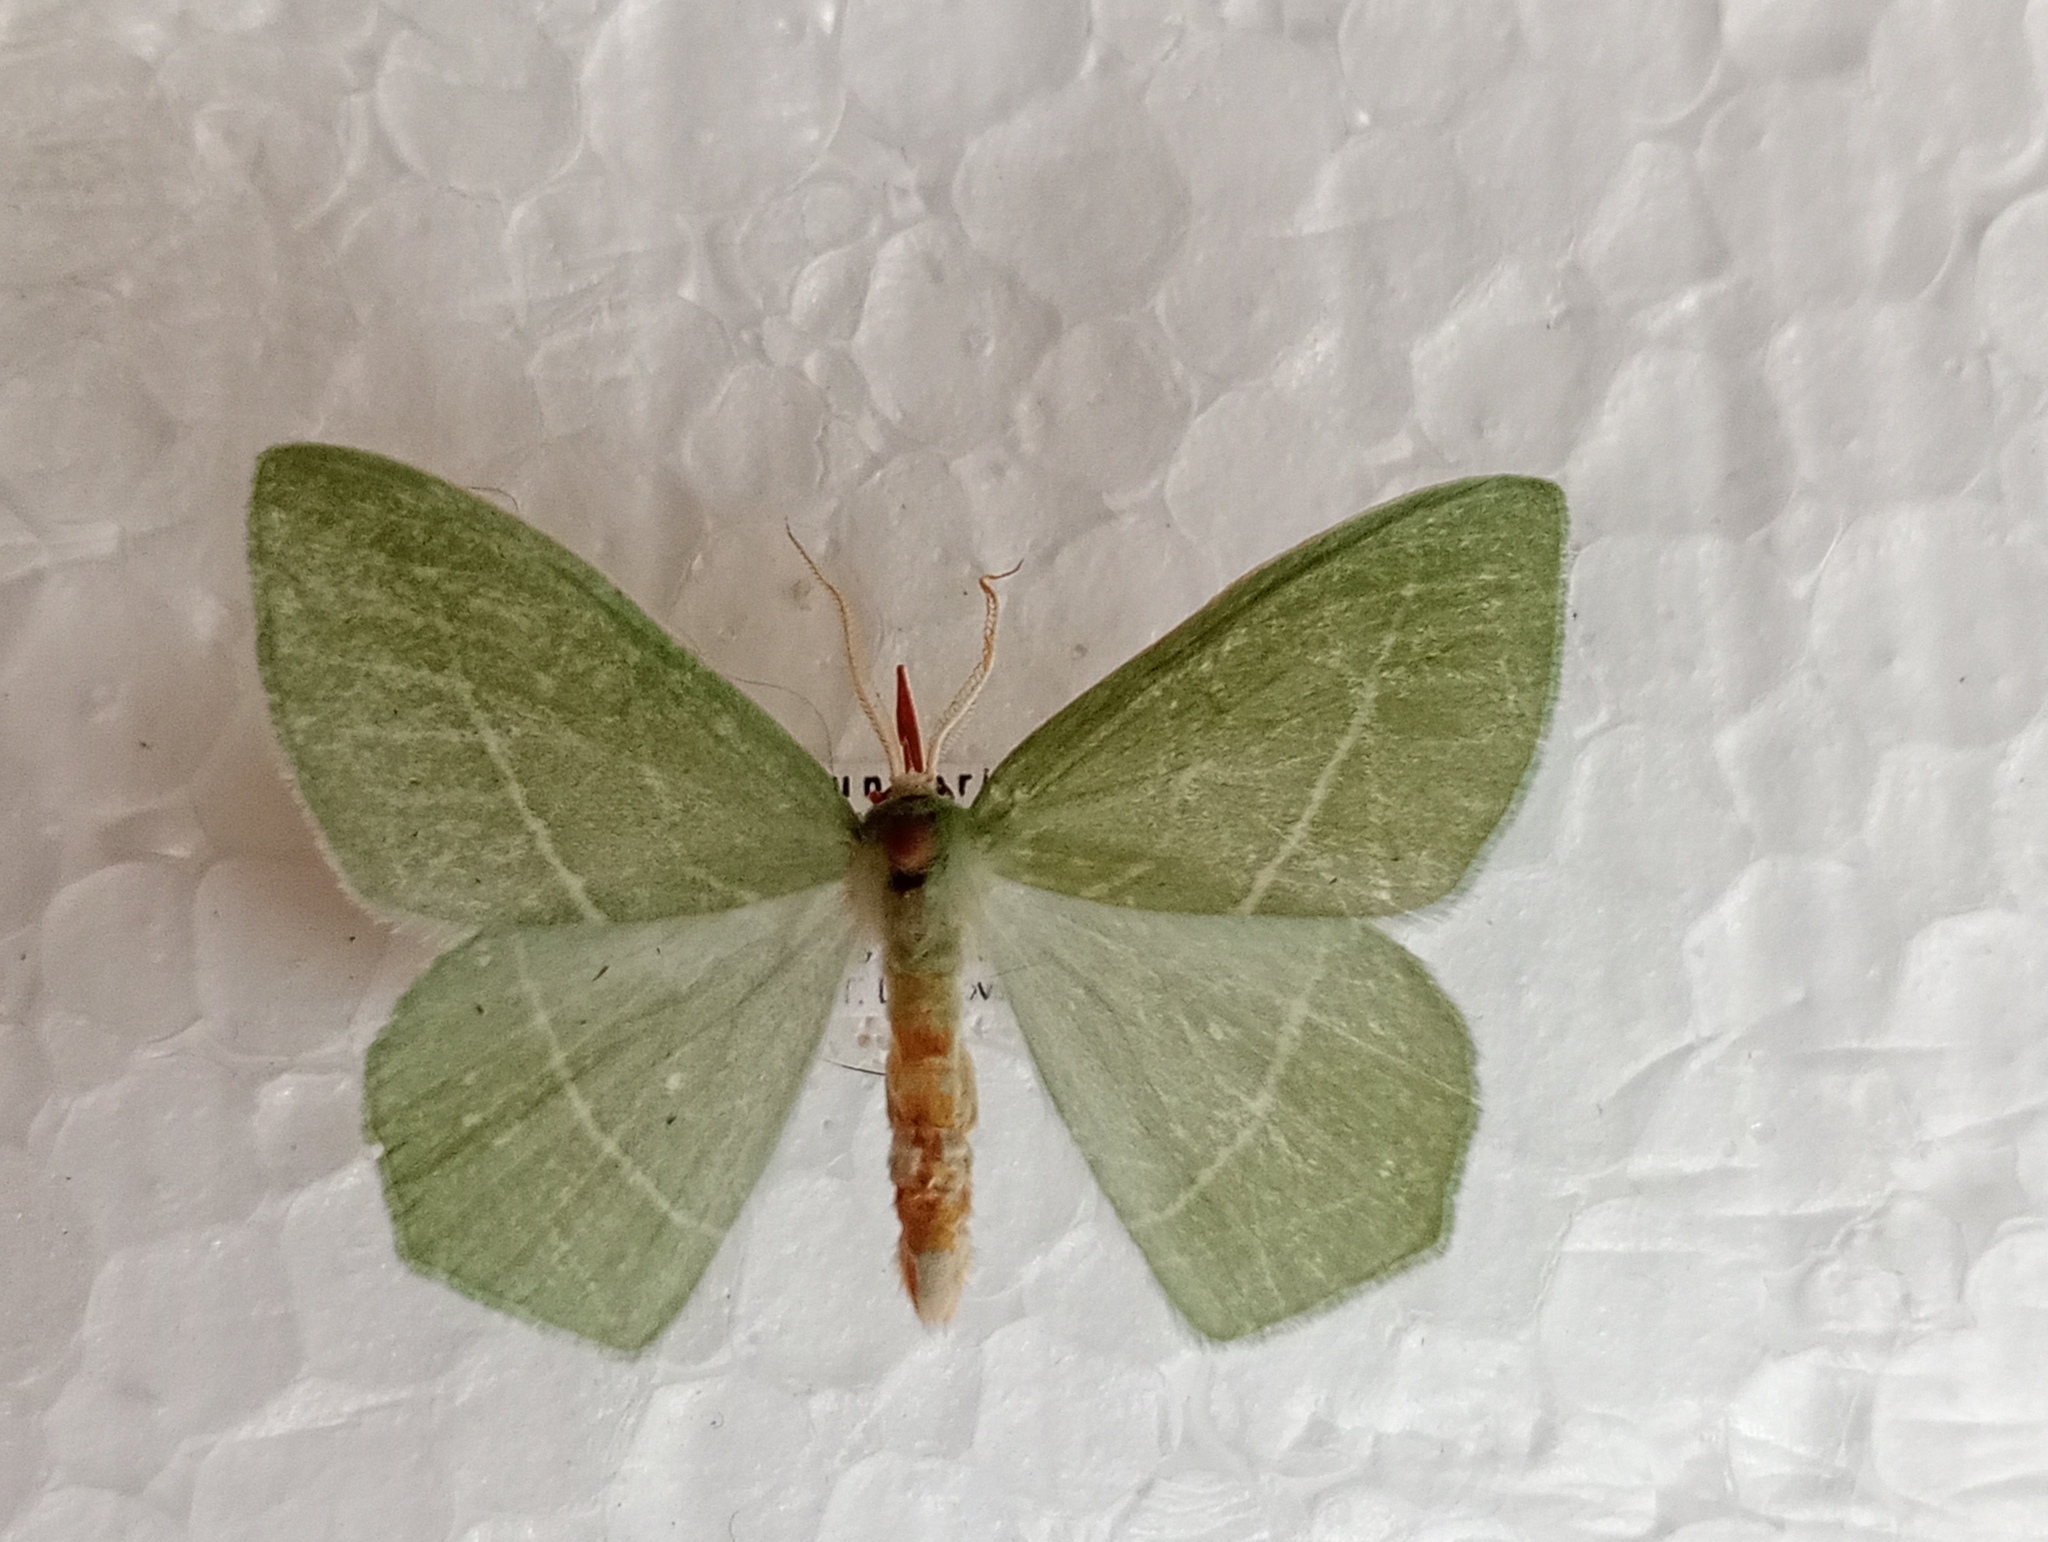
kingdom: Animalia
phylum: Arthropoda
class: Insecta
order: Lepidoptera
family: Geometridae
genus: Hemistola
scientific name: Hemistola chrysoprasaria
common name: Small emerald
